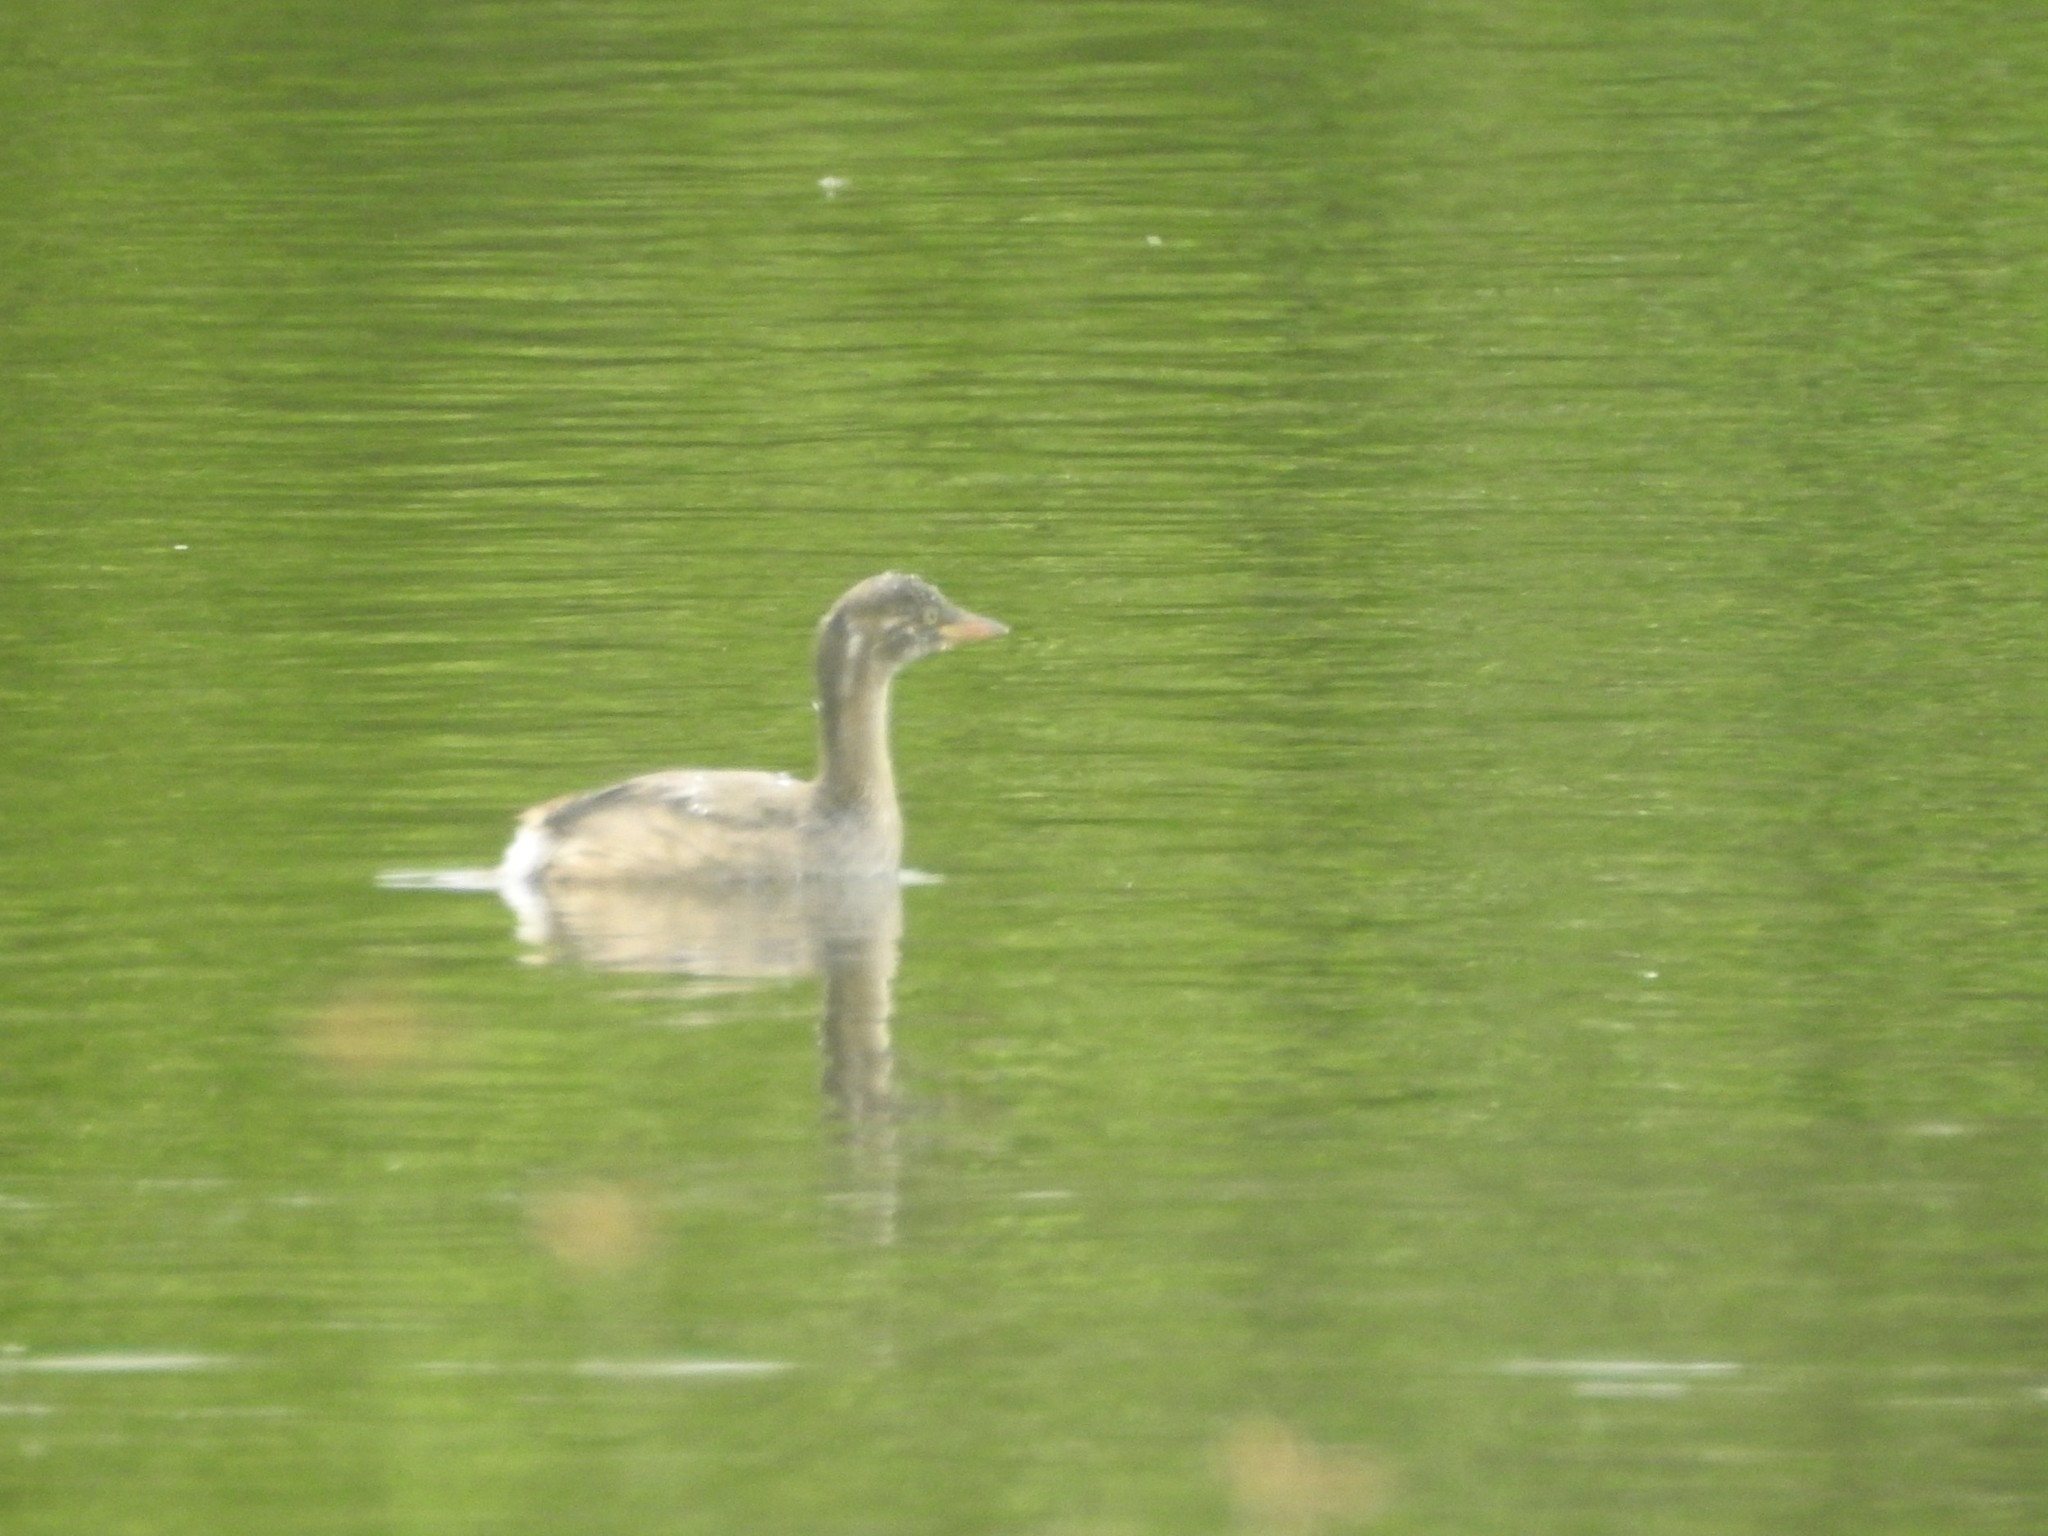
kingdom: Animalia
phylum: Chordata
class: Aves
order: Podicipediformes
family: Podicipedidae
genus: Tachybaptus
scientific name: Tachybaptus ruficollis
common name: Little grebe
